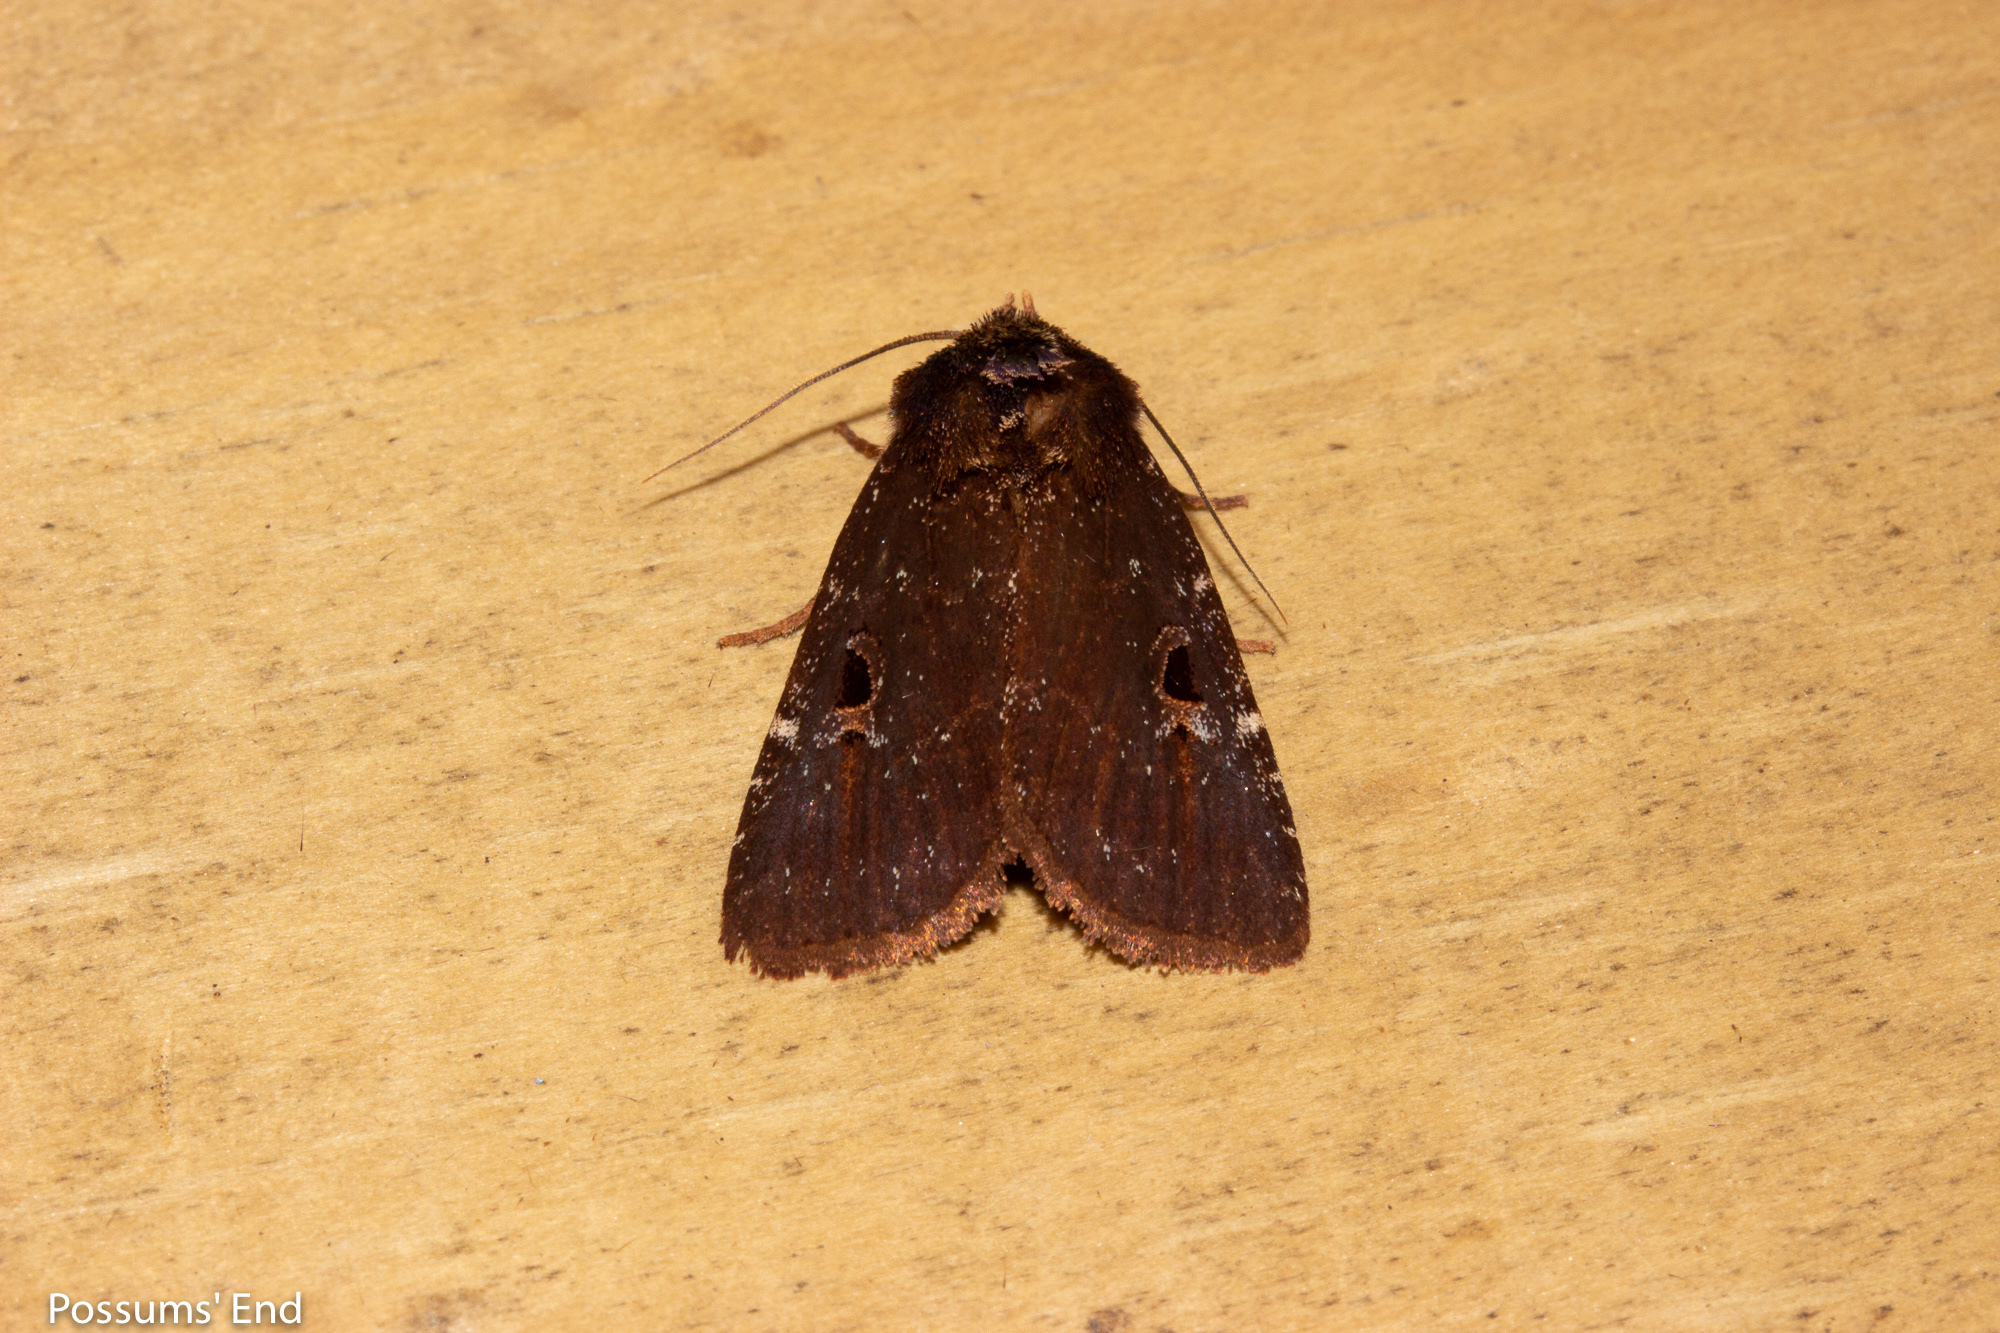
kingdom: Animalia
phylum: Arthropoda
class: Insecta
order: Lepidoptera
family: Noctuidae
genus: Austramathes
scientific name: Austramathes purpurea
